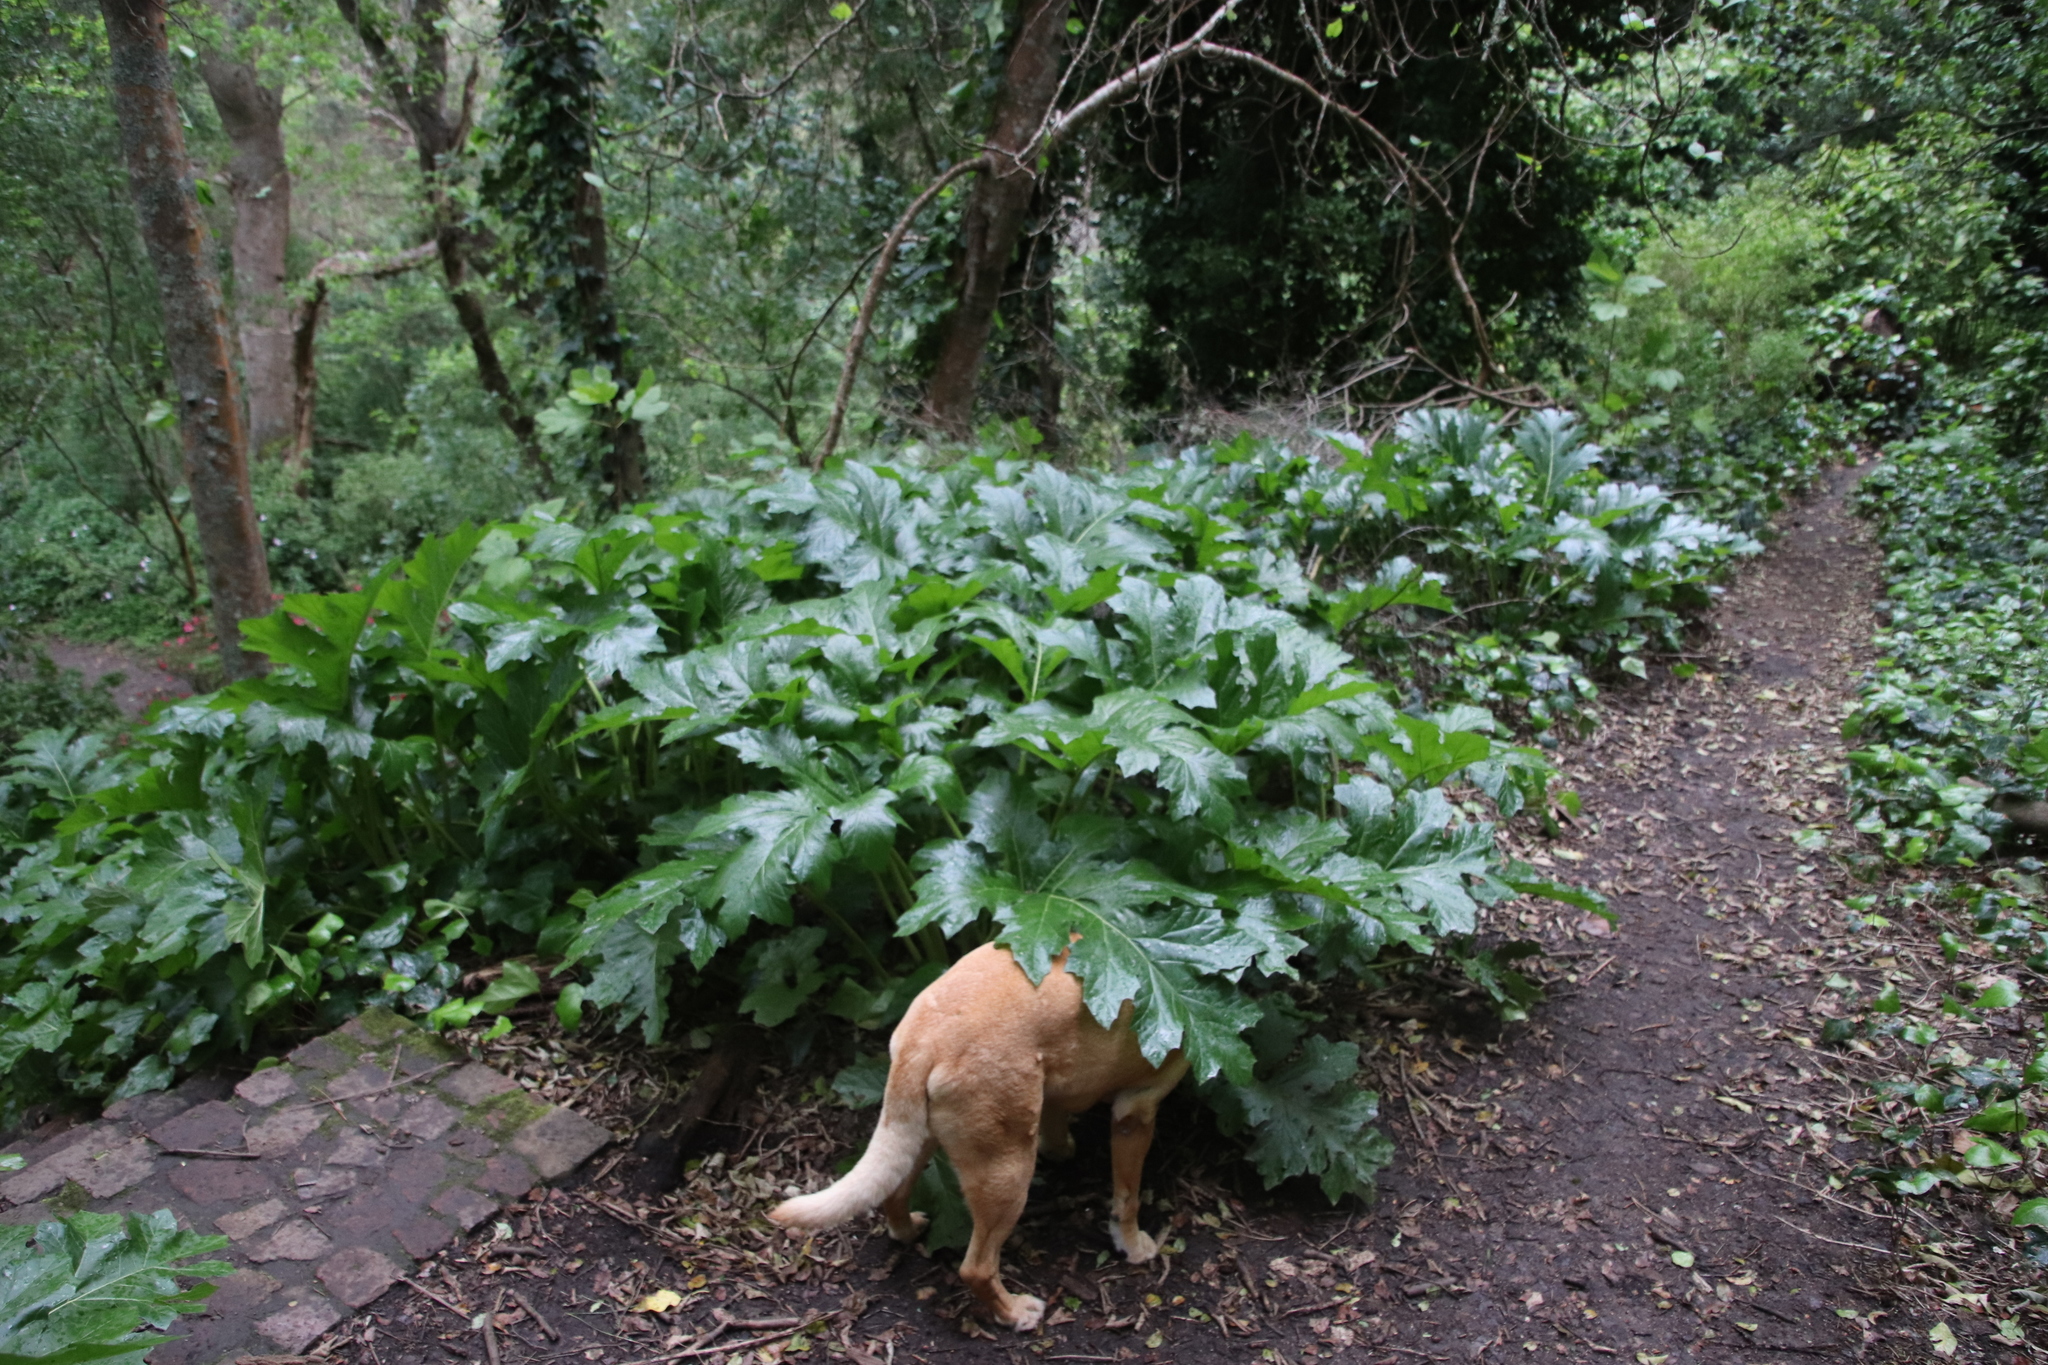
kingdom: Plantae
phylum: Tracheophyta
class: Magnoliopsida
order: Lamiales
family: Acanthaceae
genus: Acanthus
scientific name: Acanthus mollis
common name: Bear's-breech
